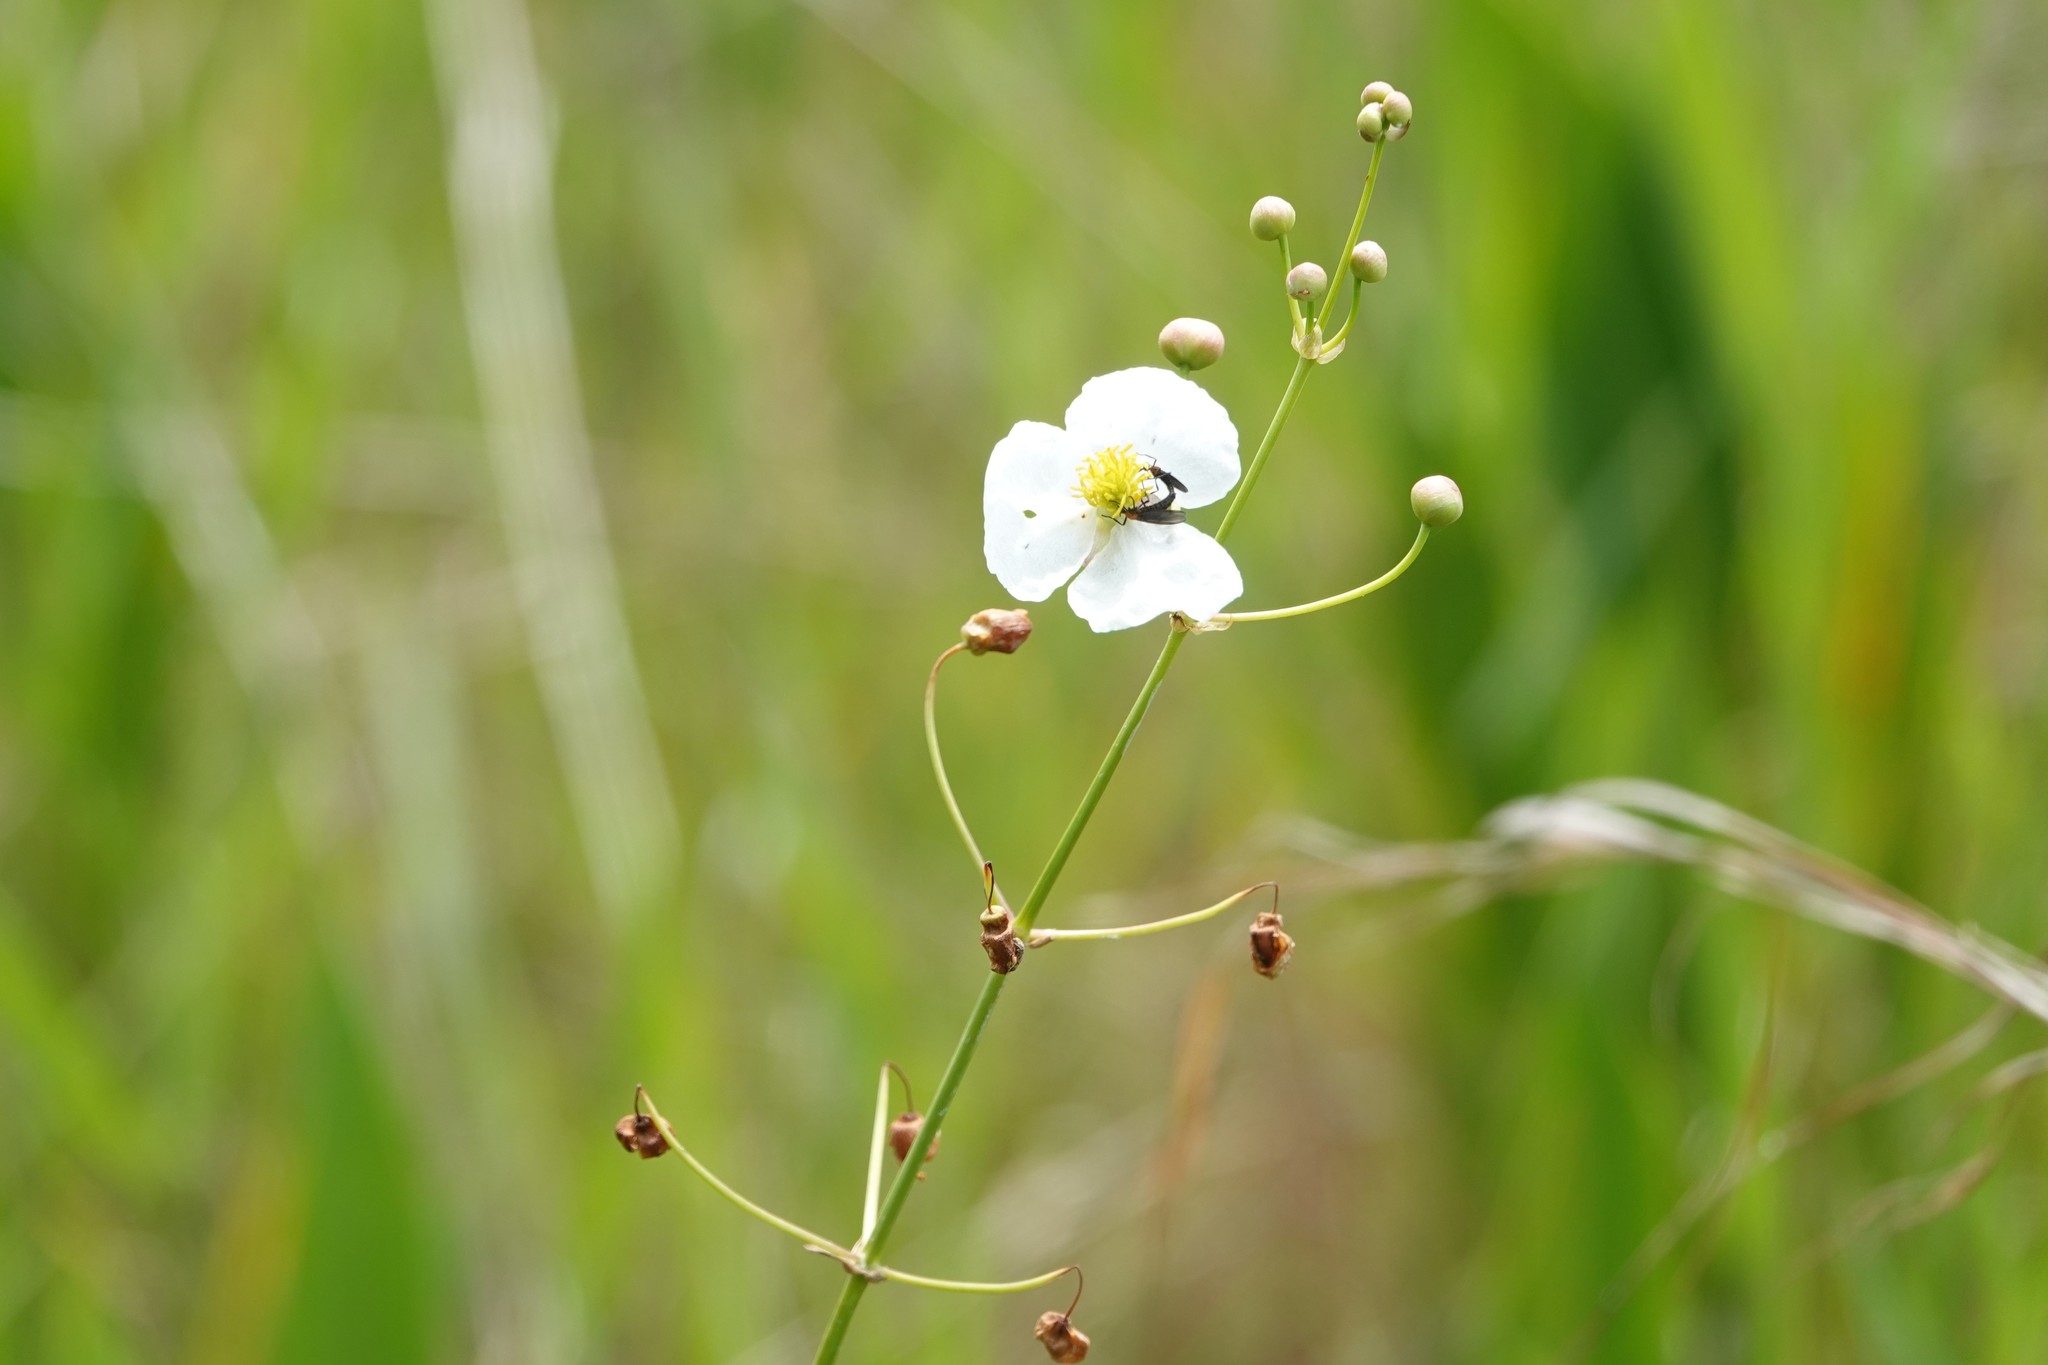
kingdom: Plantae
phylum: Tracheophyta
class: Liliopsida
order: Alismatales
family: Alismataceae
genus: Sagittaria
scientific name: Sagittaria lancifolia
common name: Lance-leaf arrowhead
